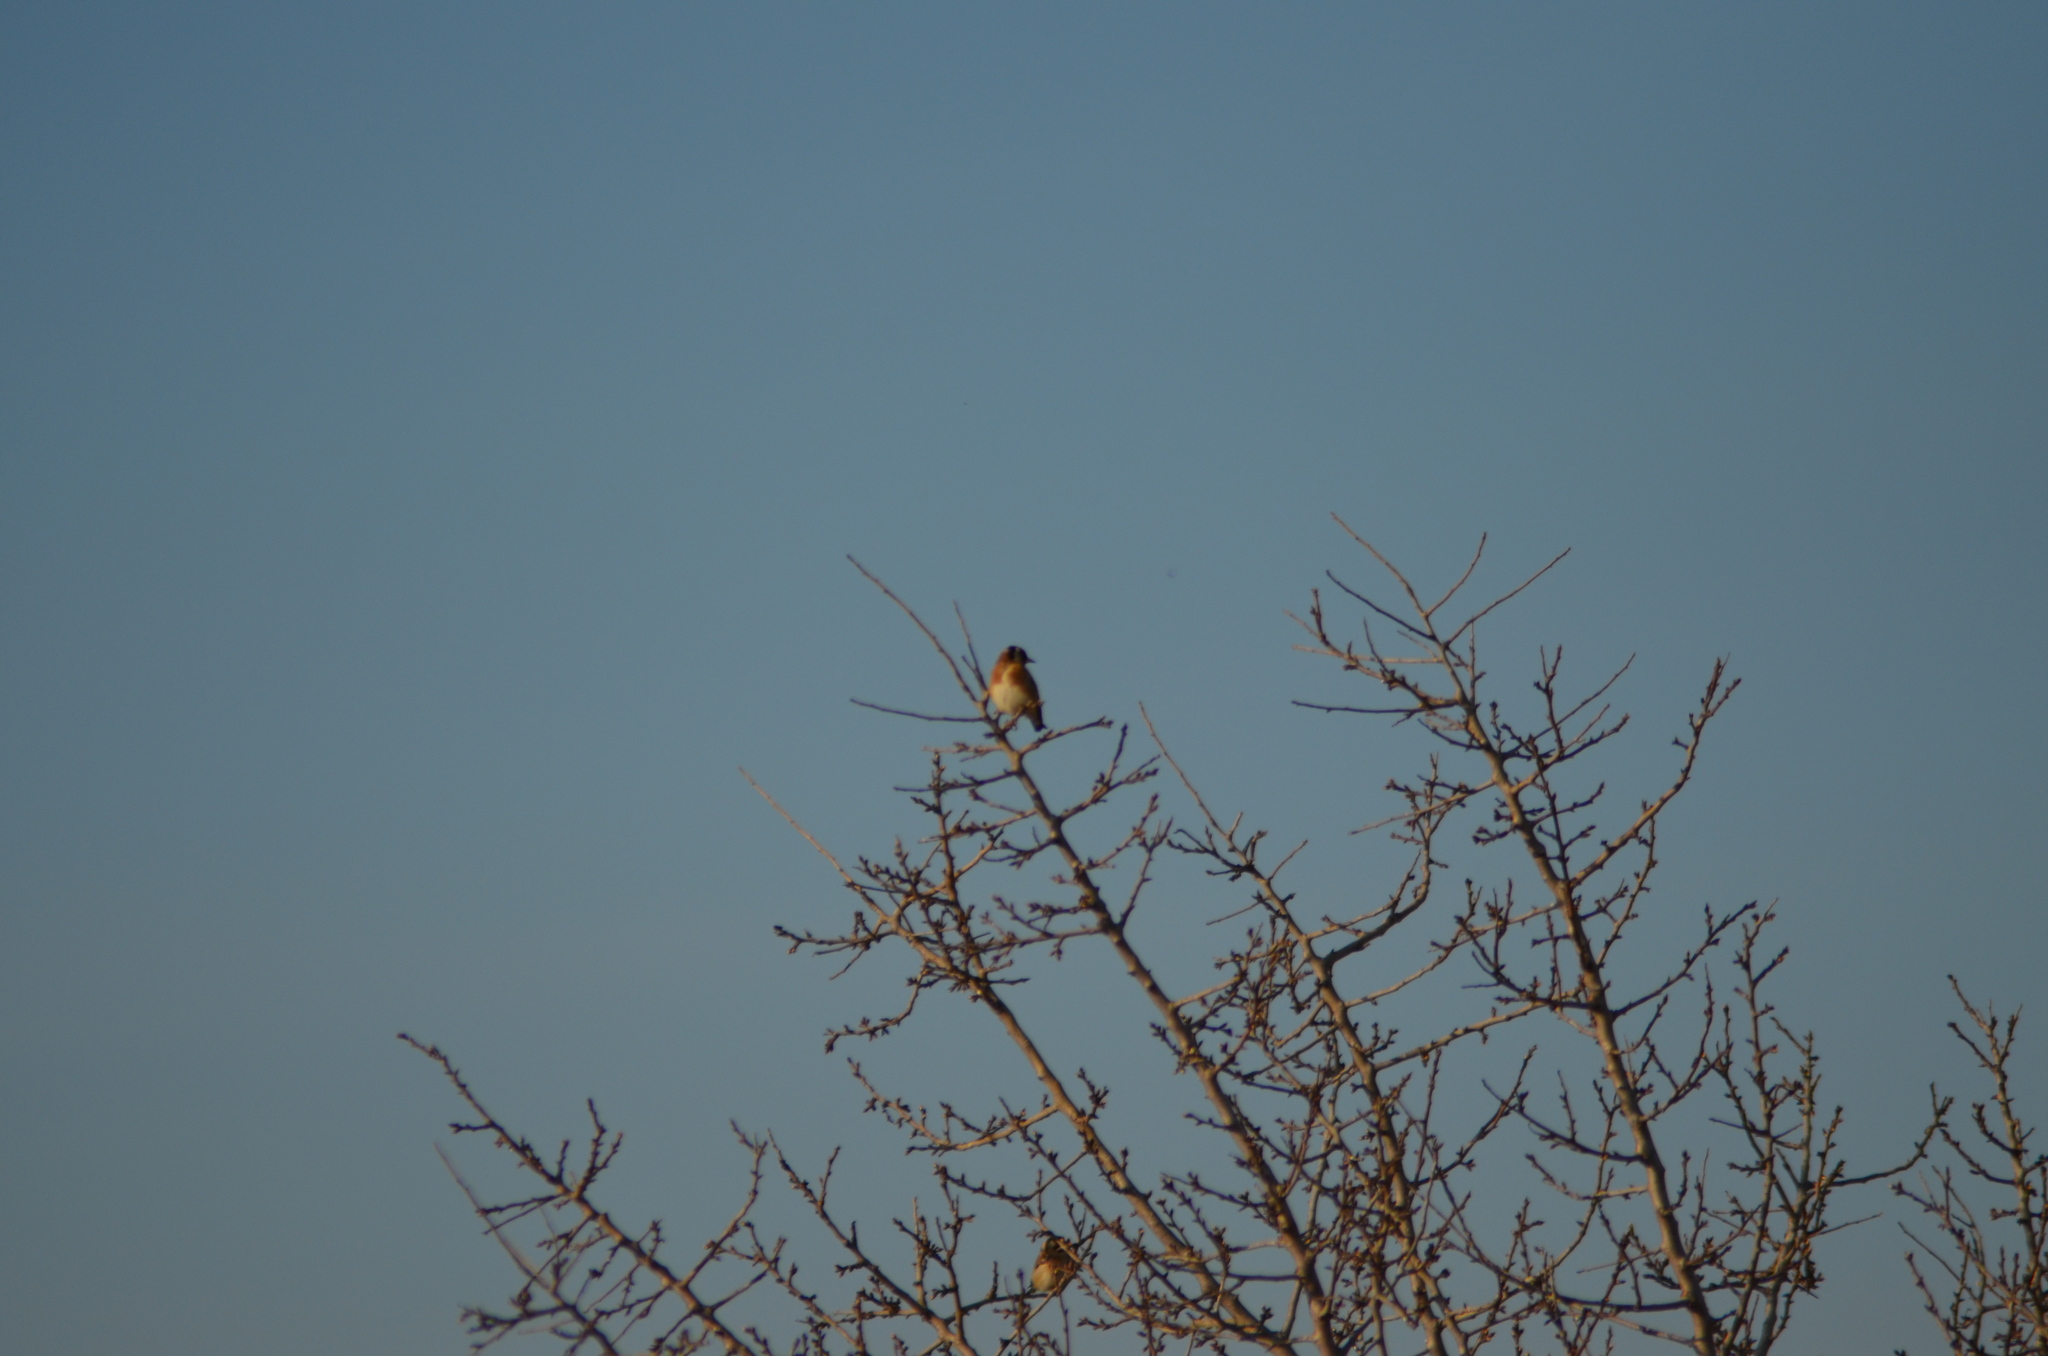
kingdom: Animalia
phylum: Chordata
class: Aves
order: Passeriformes
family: Fringillidae
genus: Carduelis
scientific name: Carduelis carduelis
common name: European goldfinch
